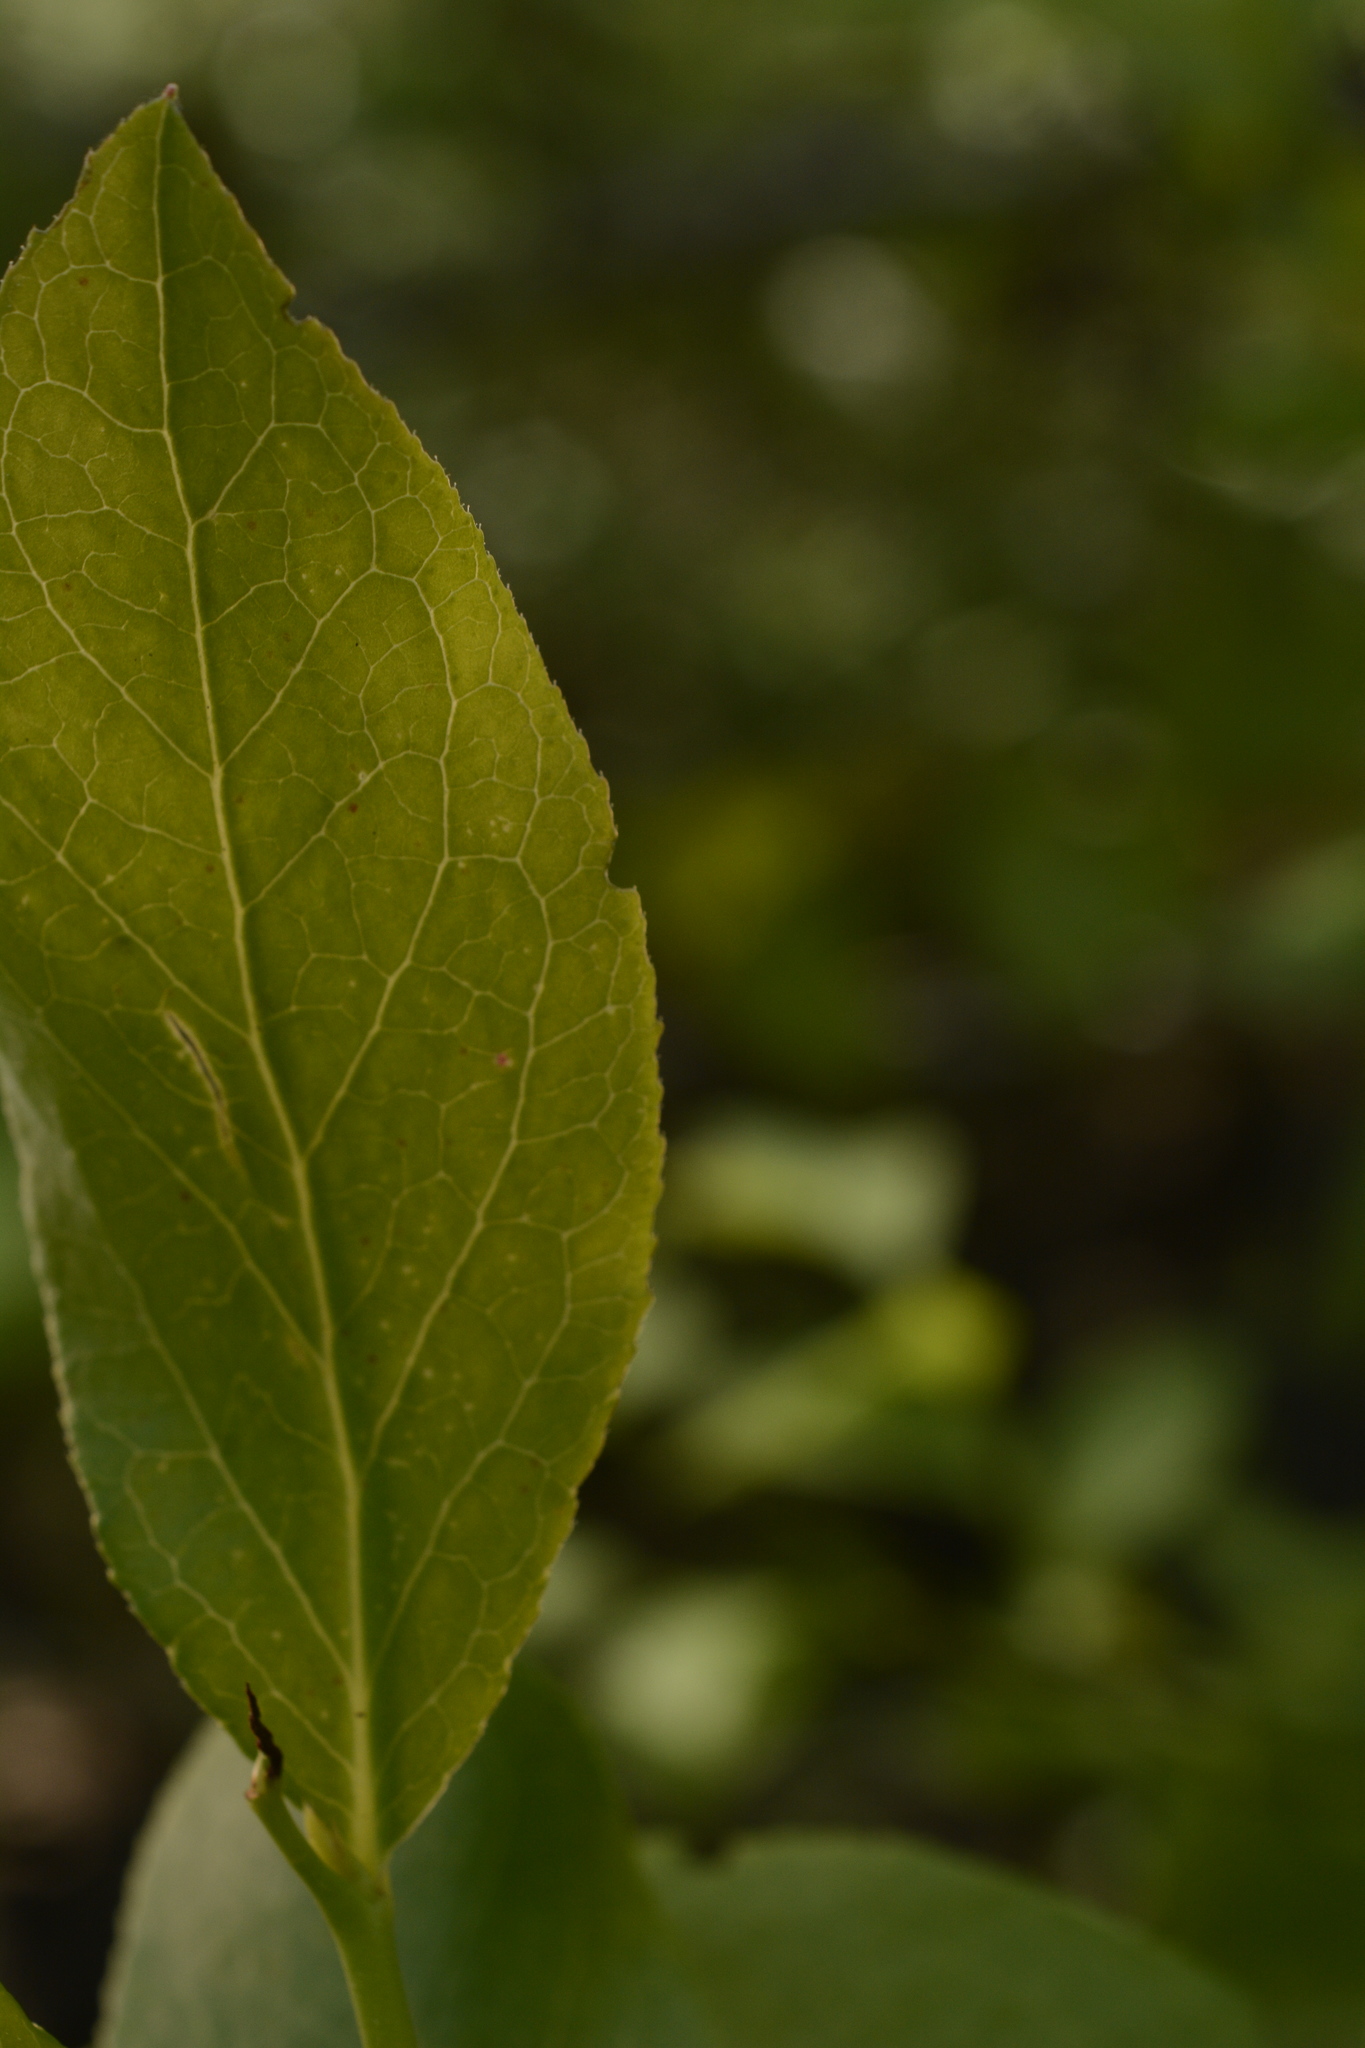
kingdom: Plantae
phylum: Tracheophyta
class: Magnoliopsida
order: Ericales
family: Ericaceae
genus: Vaccinium
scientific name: Vaccinium corymbosum
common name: Blueberry
